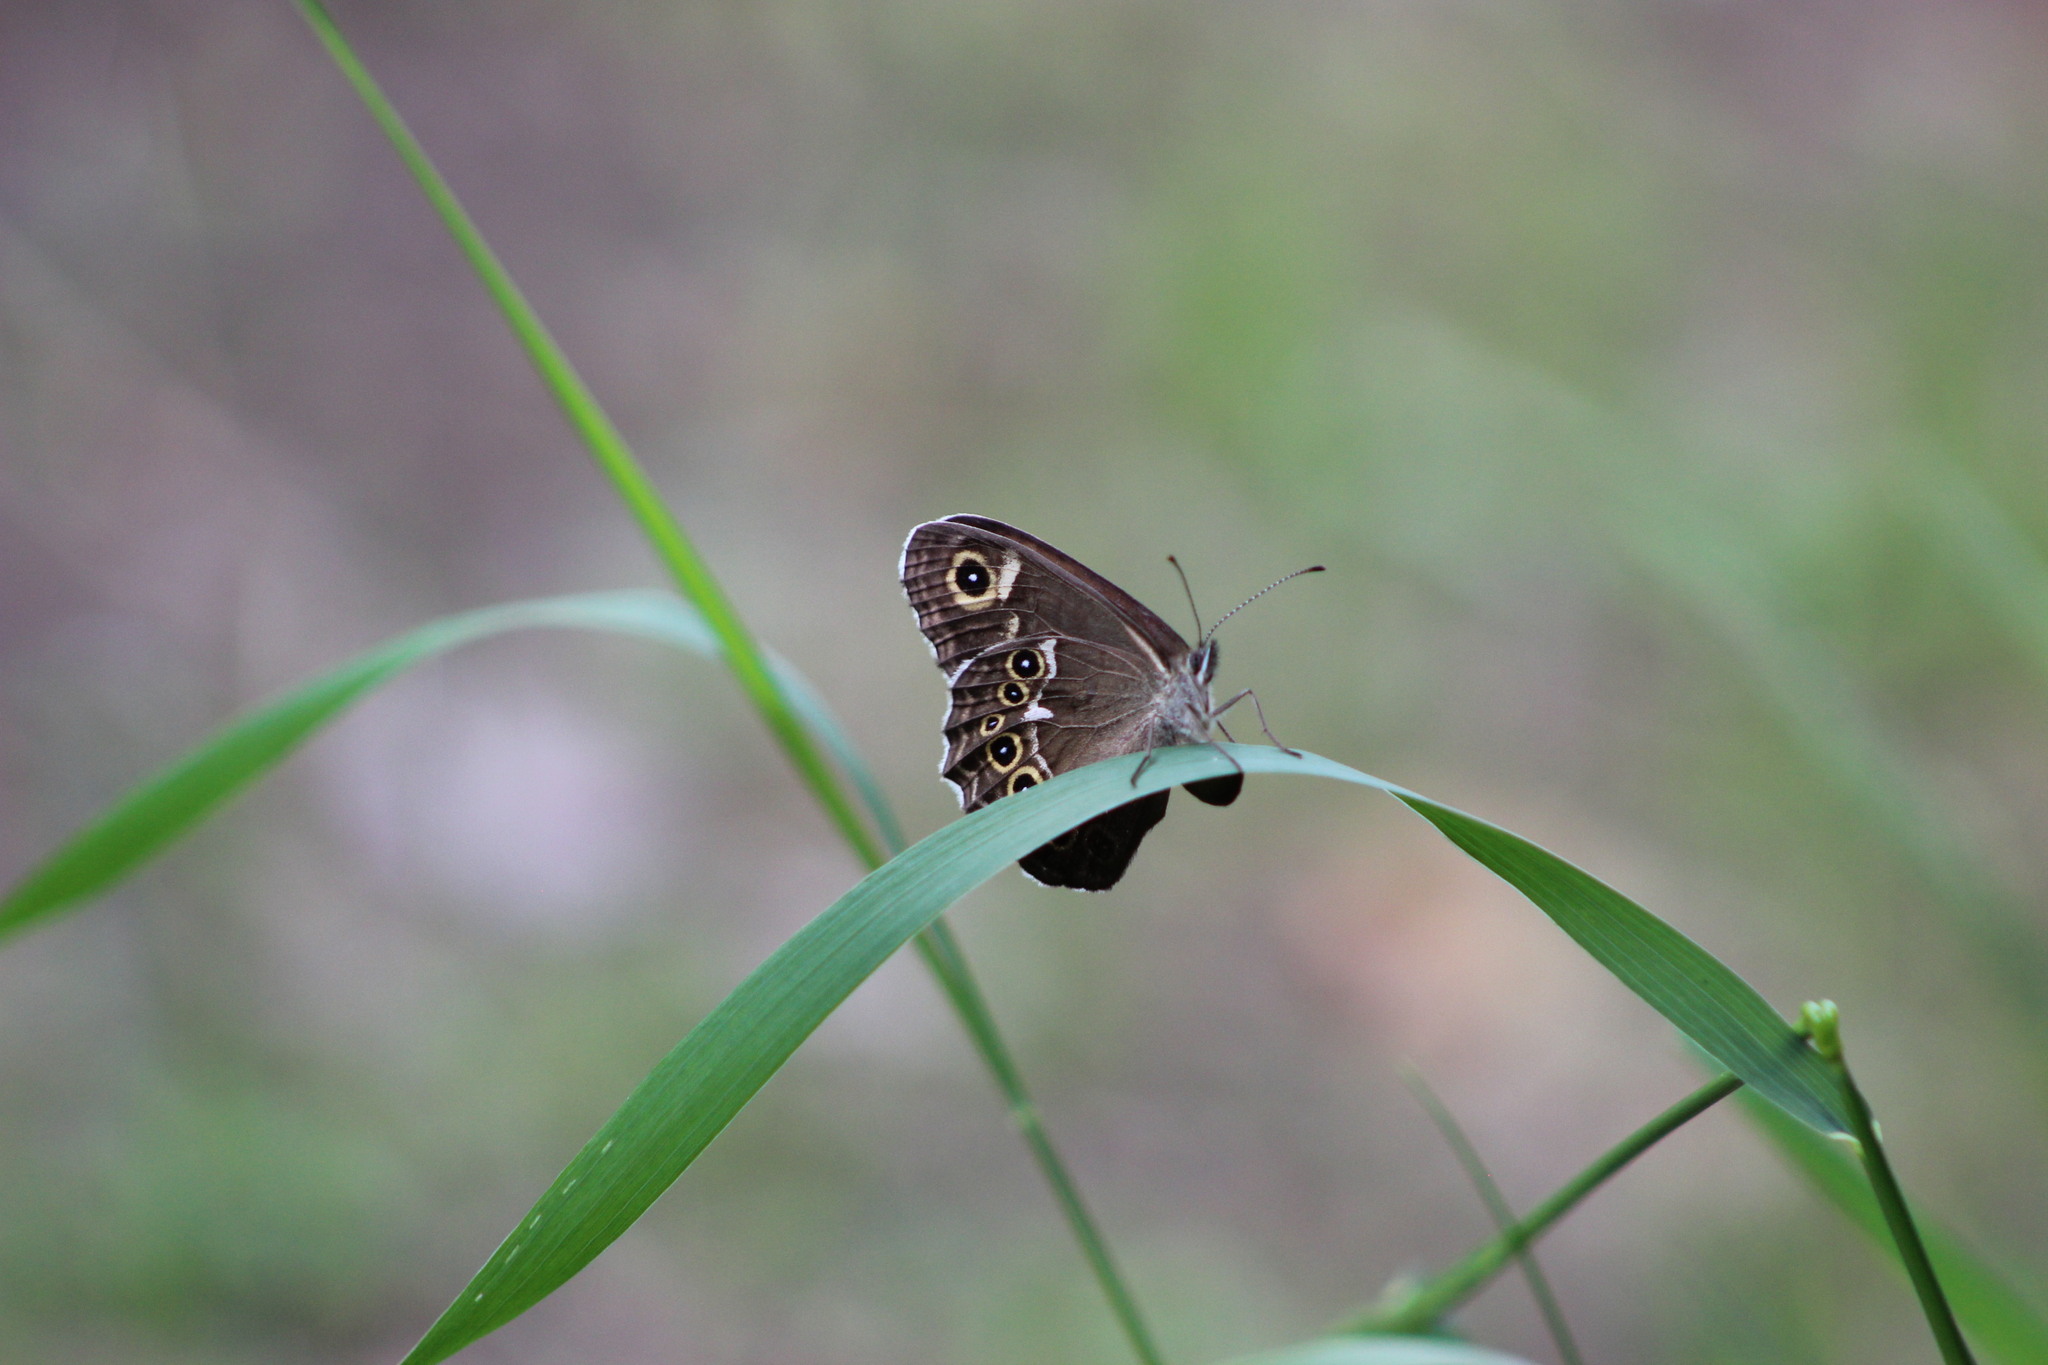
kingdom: Animalia
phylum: Arthropoda
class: Insecta
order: Lepidoptera
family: Nymphalidae
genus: Pararge
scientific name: Pararge Lasiommata deidamia
